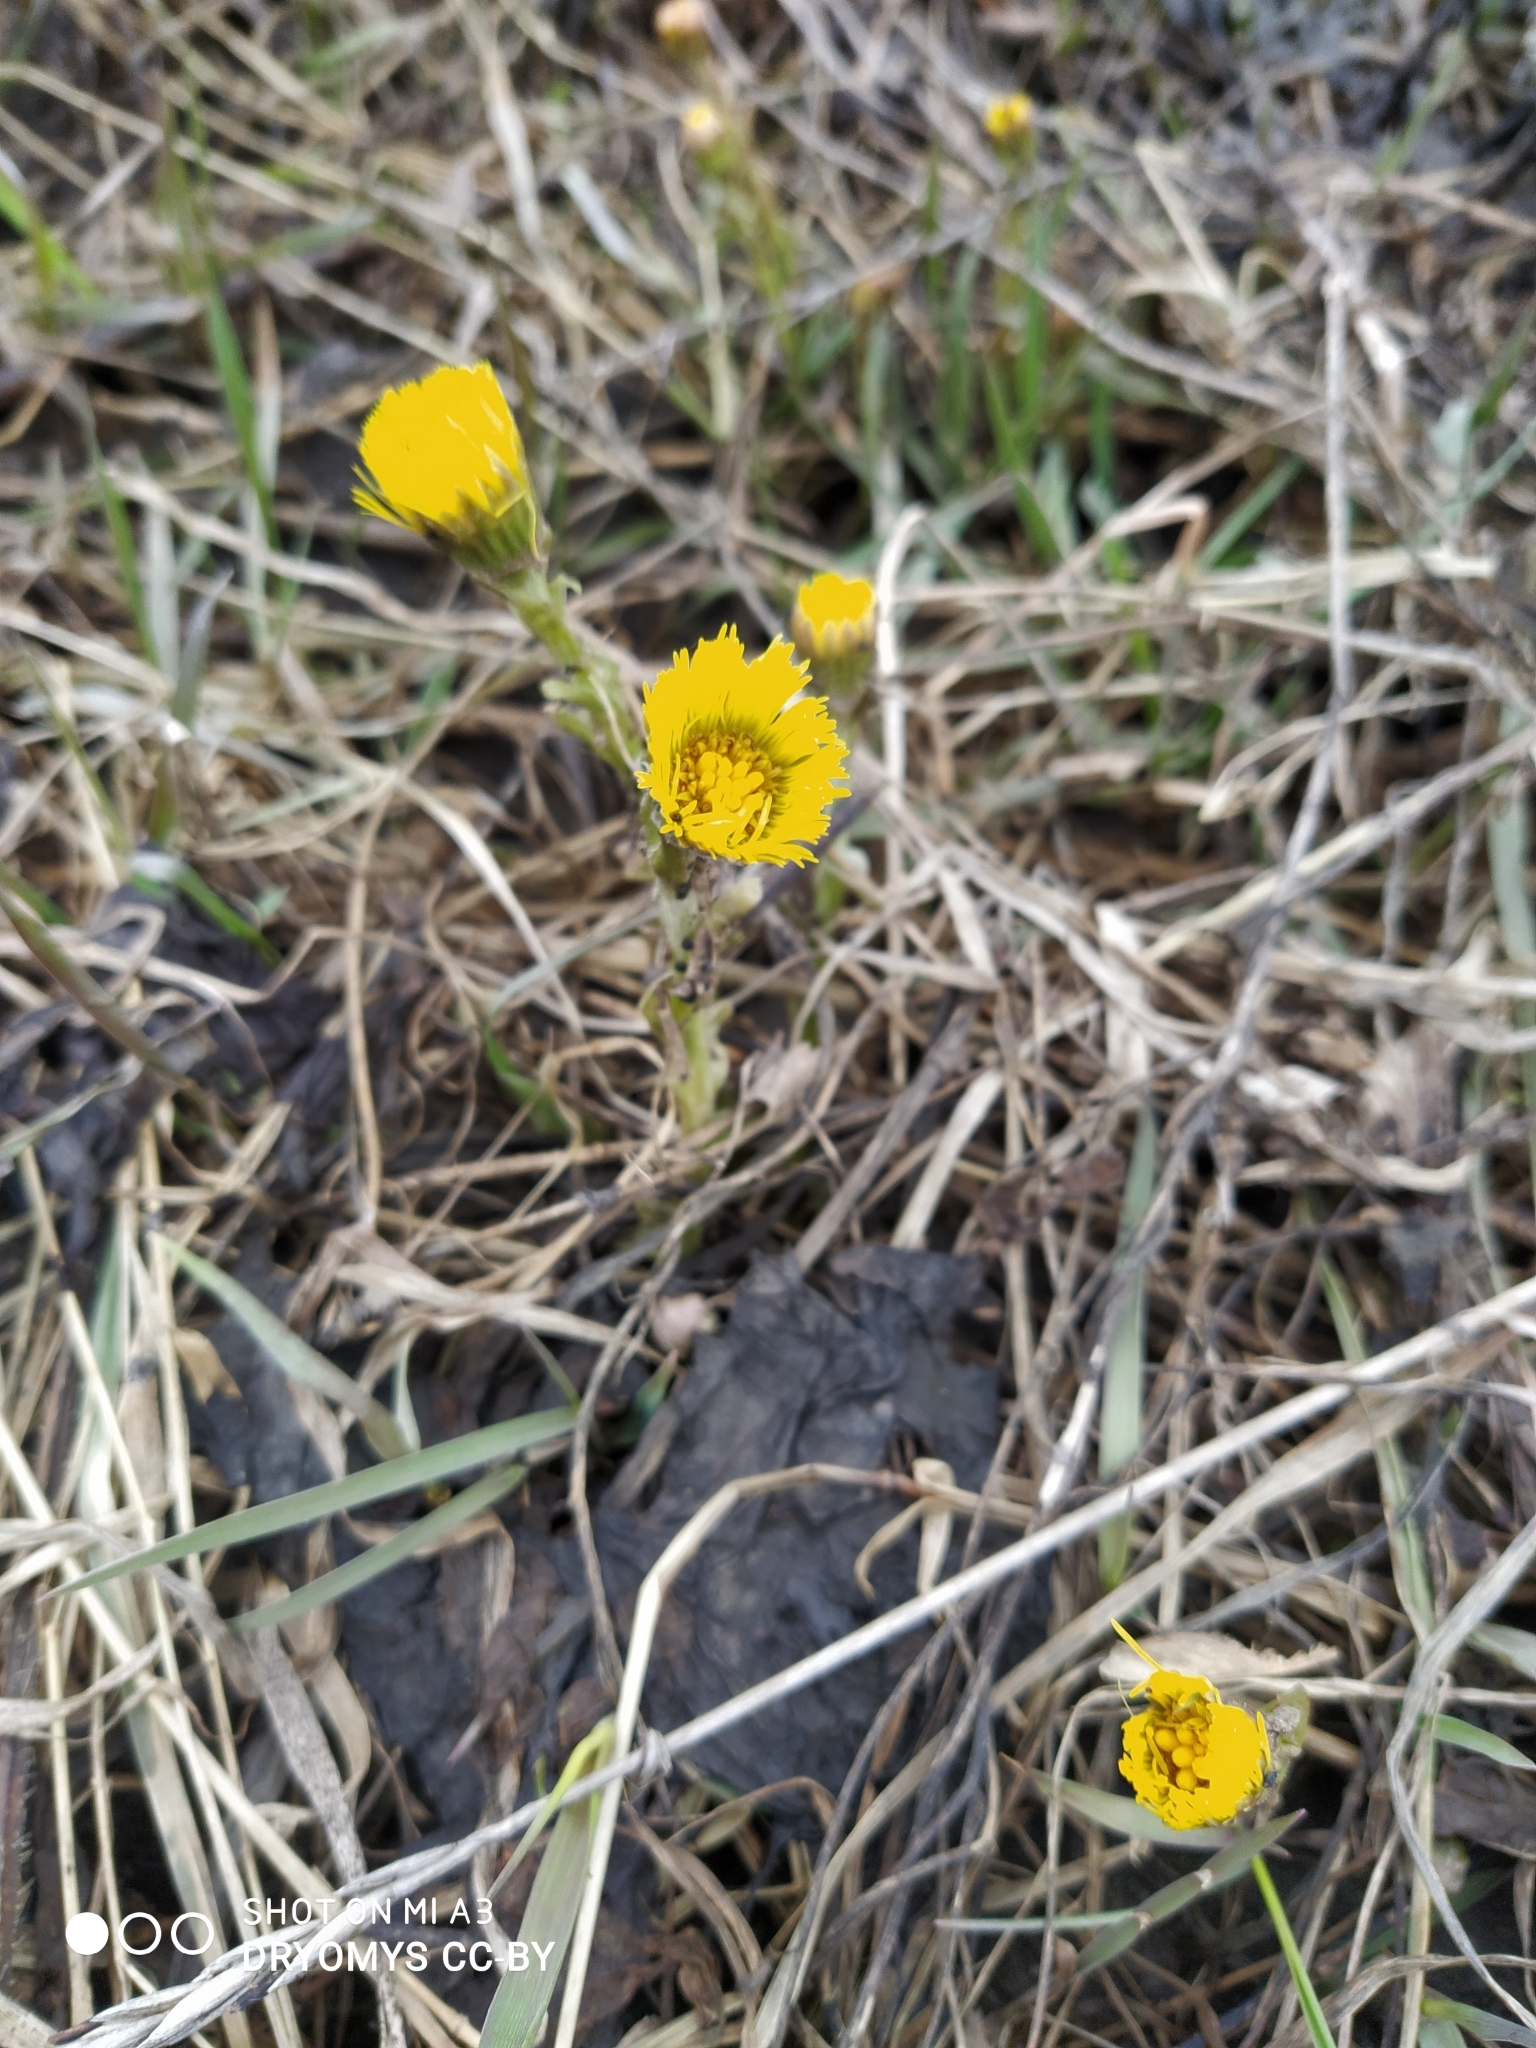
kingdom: Plantae
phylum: Tracheophyta
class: Magnoliopsida
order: Asterales
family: Asteraceae
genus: Tussilago
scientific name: Tussilago farfara
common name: Coltsfoot
